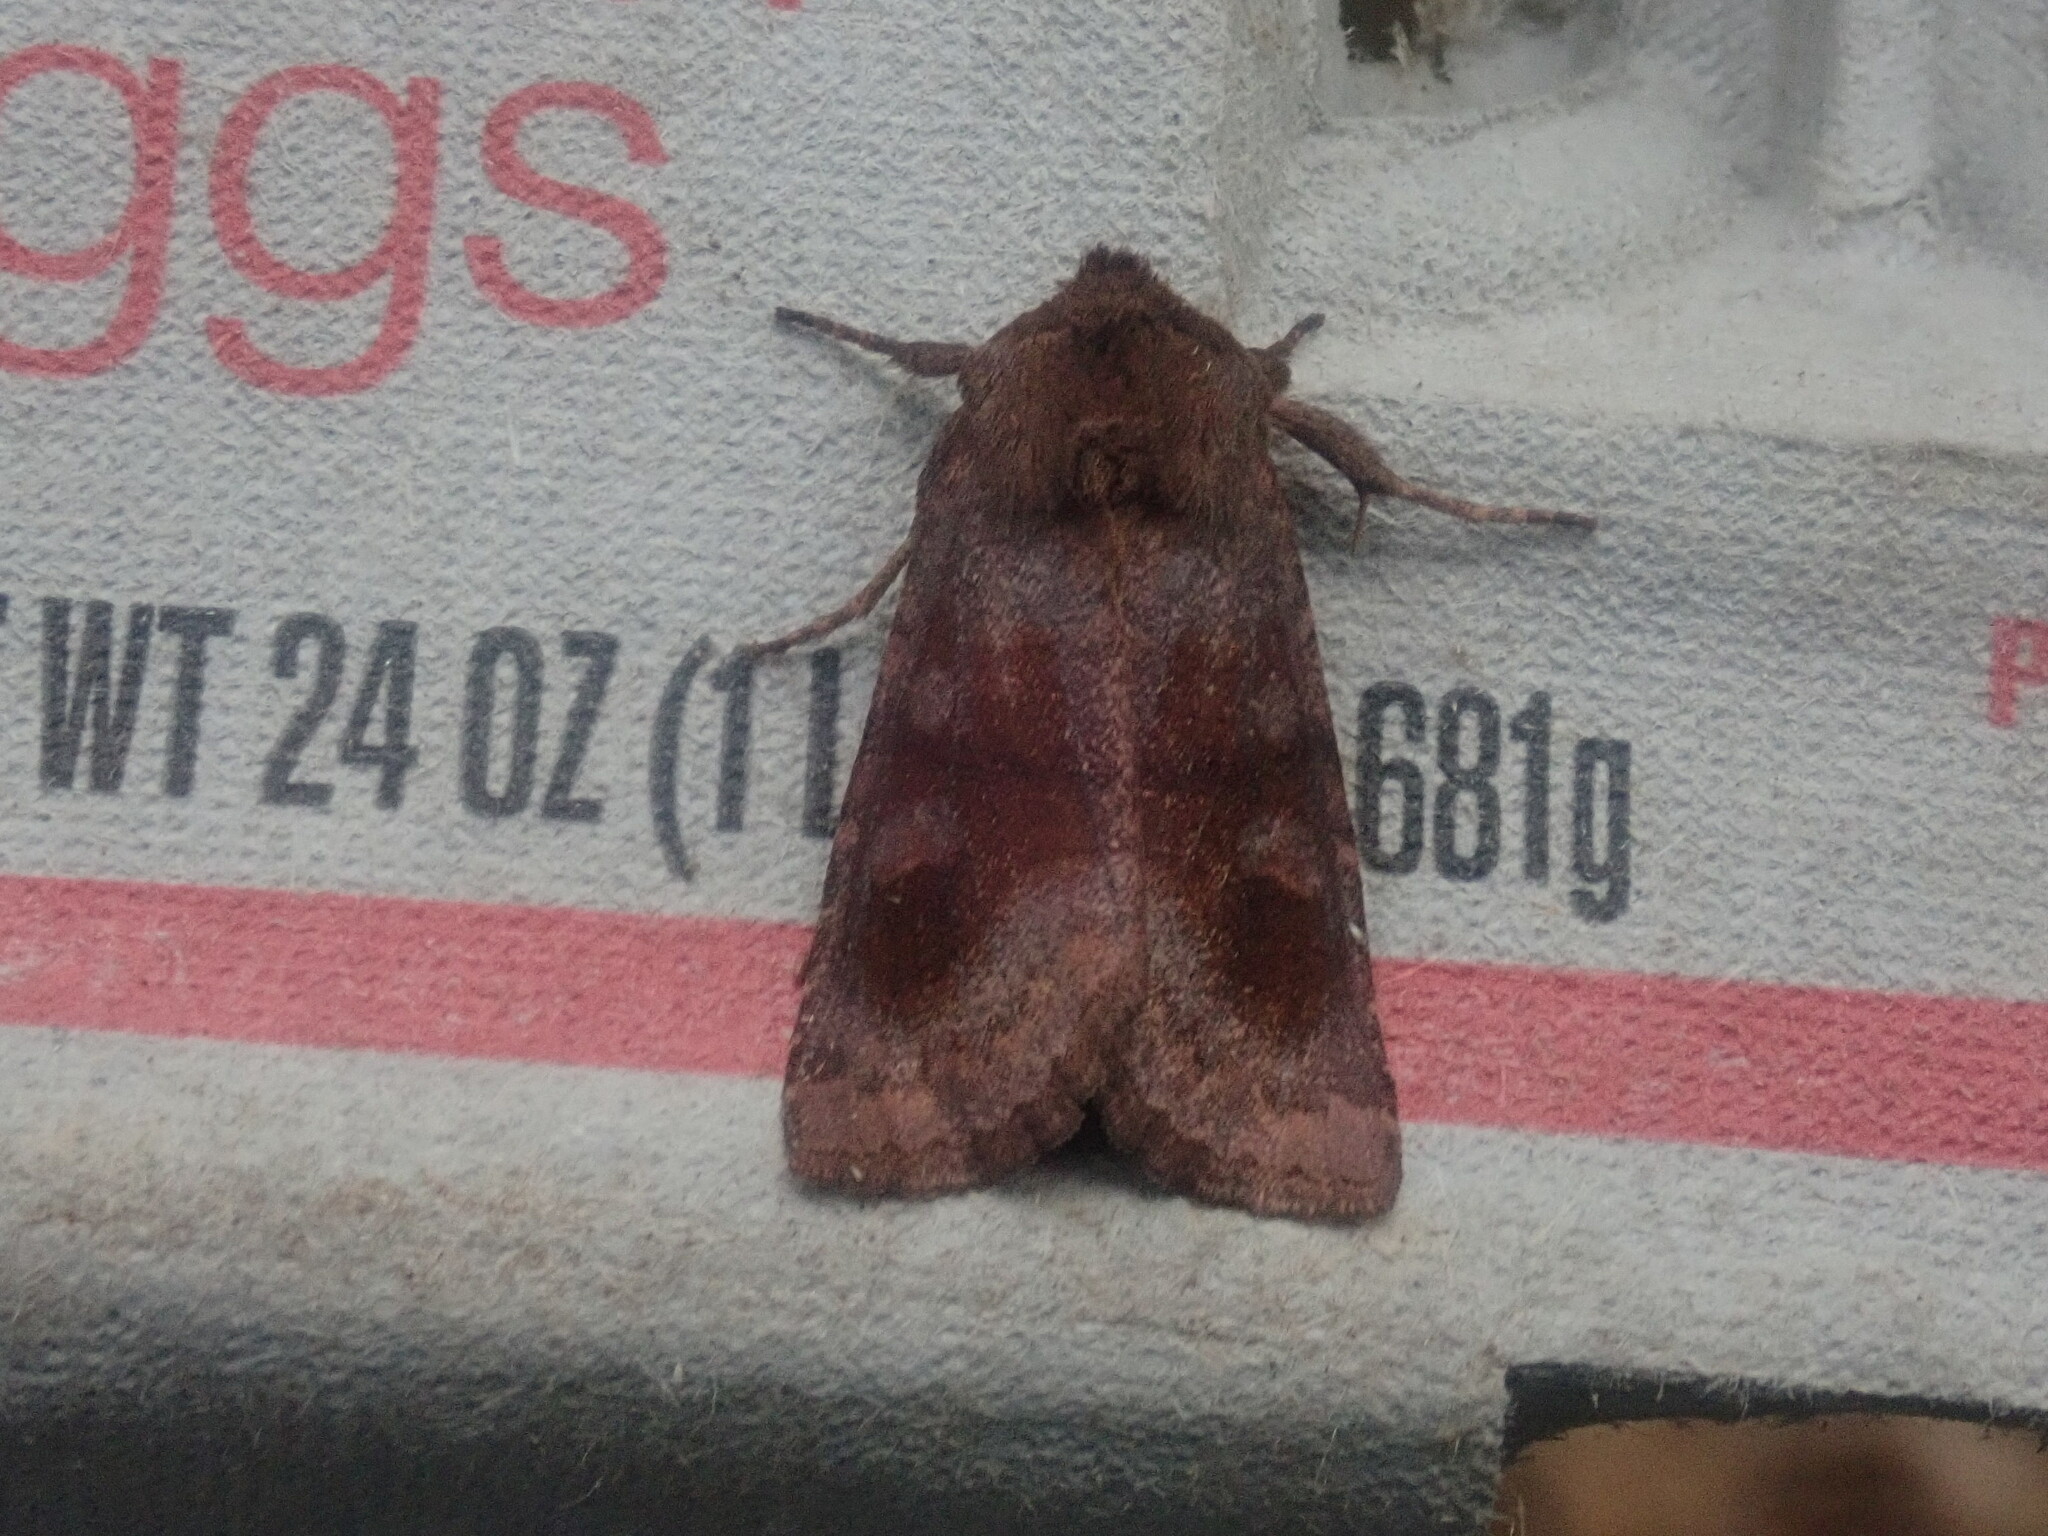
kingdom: Animalia
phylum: Arthropoda
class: Insecta
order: Lepidoptera
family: Noctuidae
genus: Nephelodes
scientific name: Nephelodes minians
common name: Bronzed cutworm
